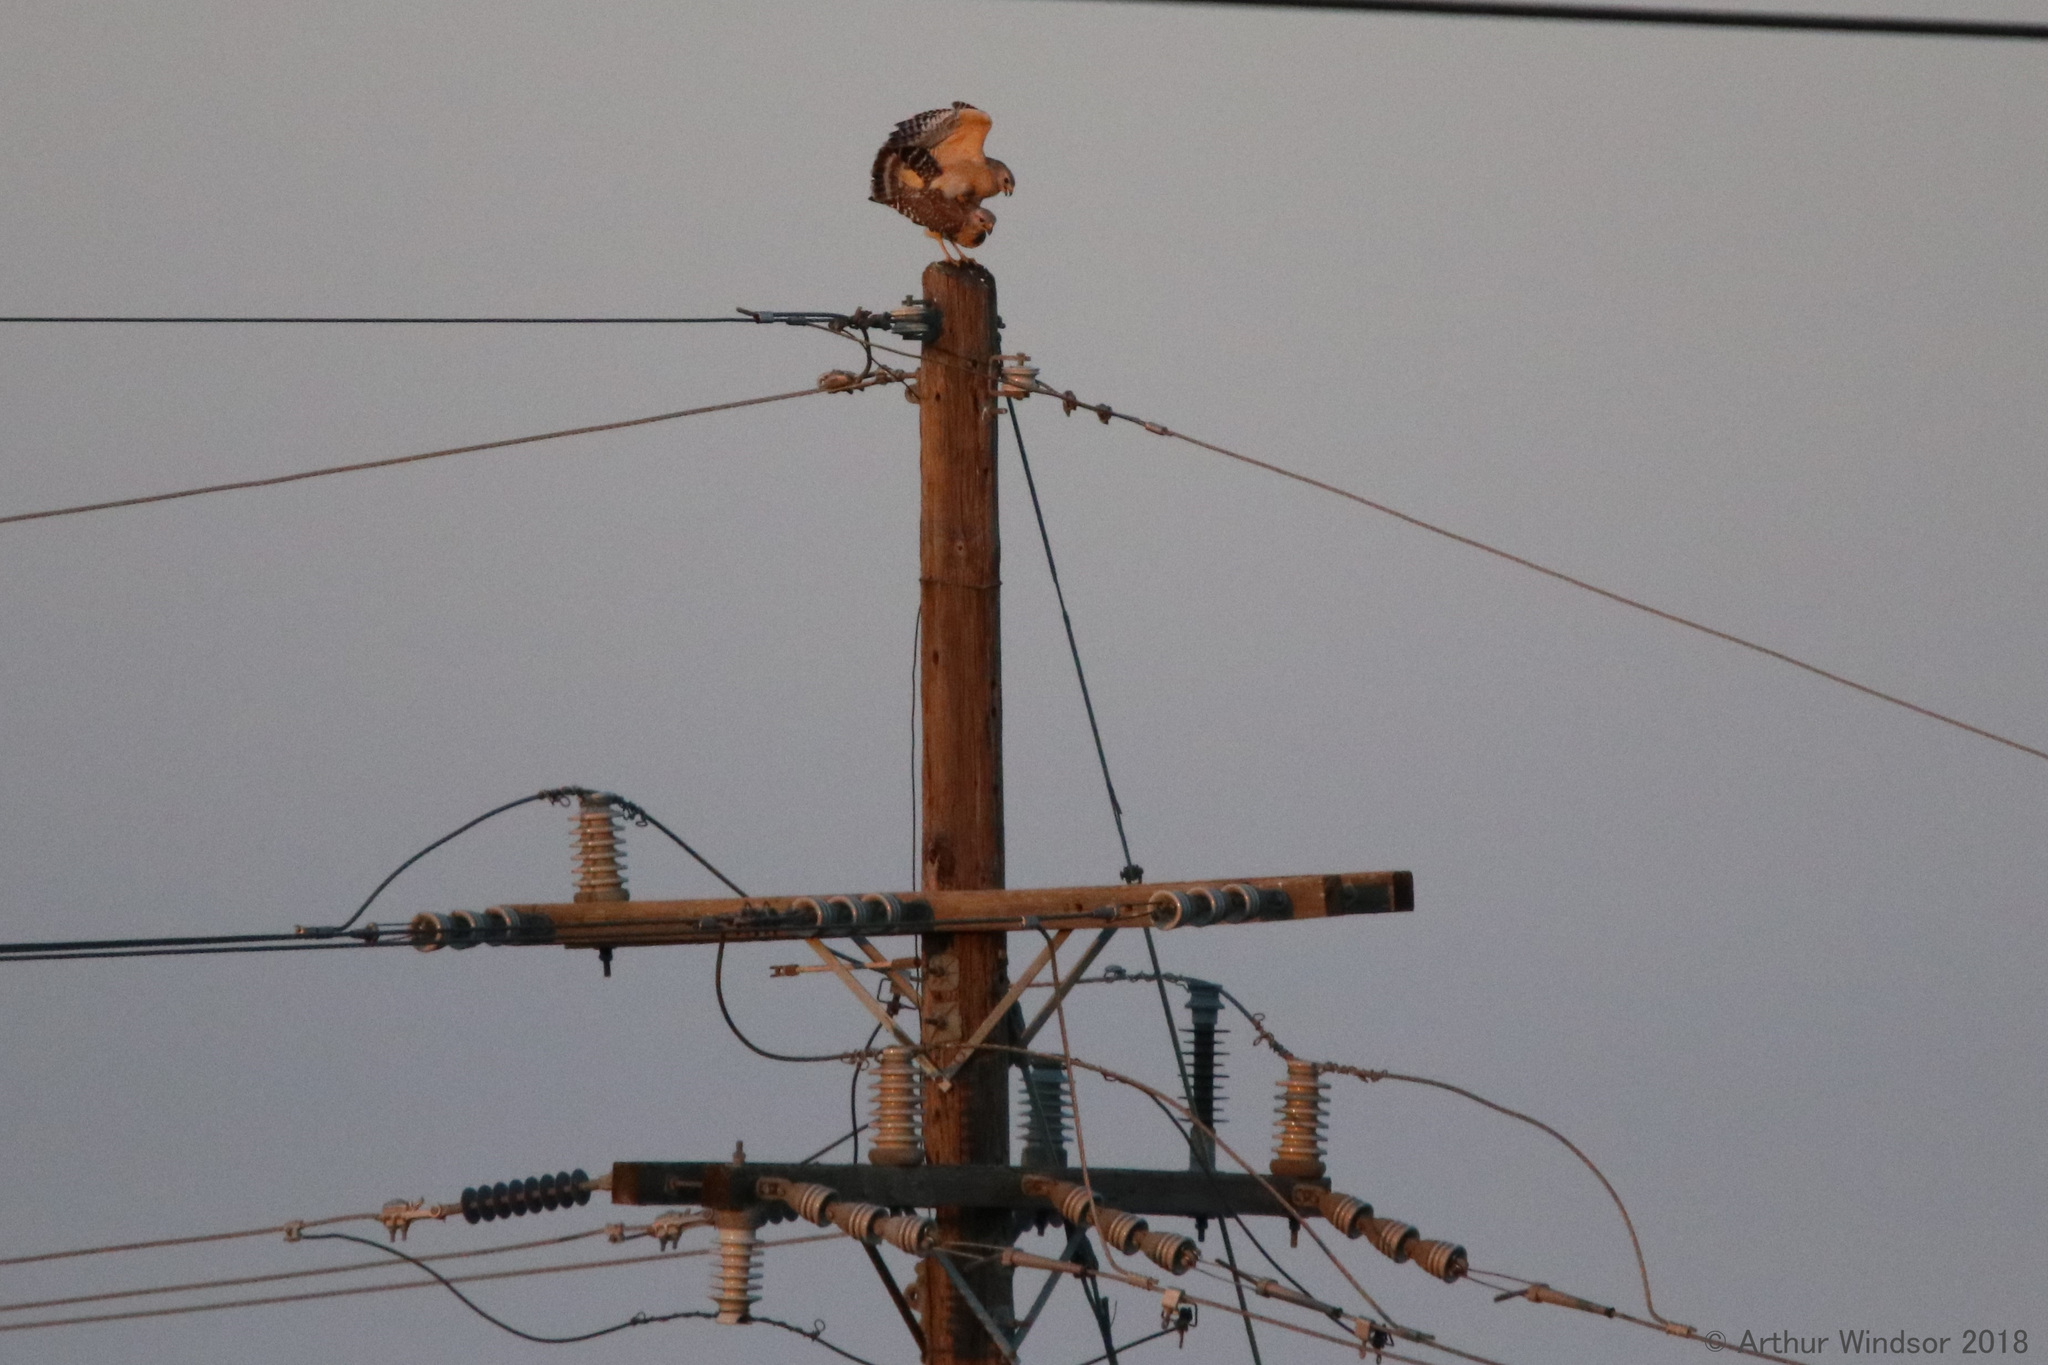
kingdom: Animalia
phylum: Chordata
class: Aves
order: Accipitriformes
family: Accipitridae
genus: Buteo
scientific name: Buteo lineatus
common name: Red-shouldered hawk
